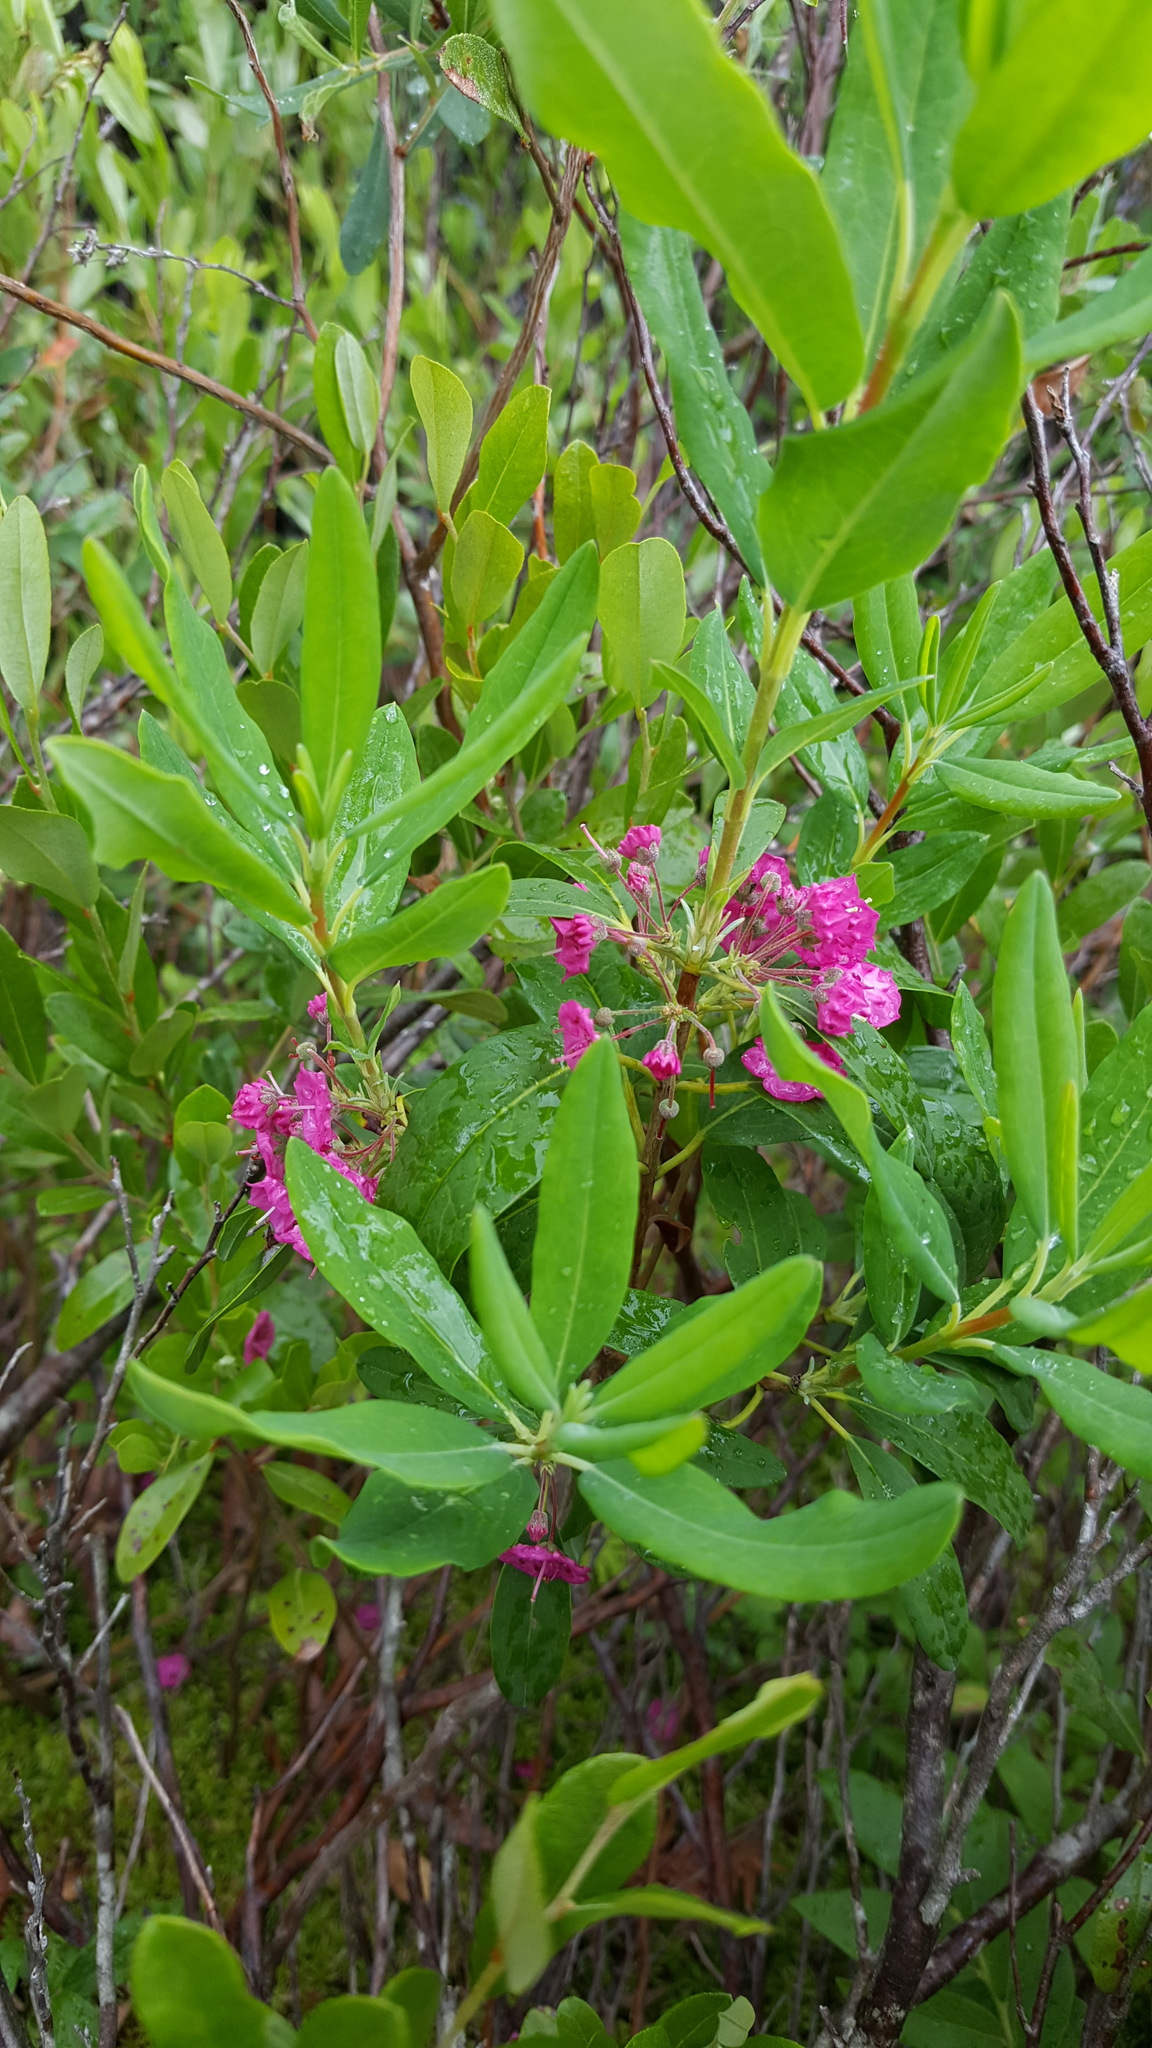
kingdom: Plantae
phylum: Tracheophyta
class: Magnoliopsida
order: Ericales
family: Ericaceae
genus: Kalmia
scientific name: Kalmia angustifolia
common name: Sheep-laurel
